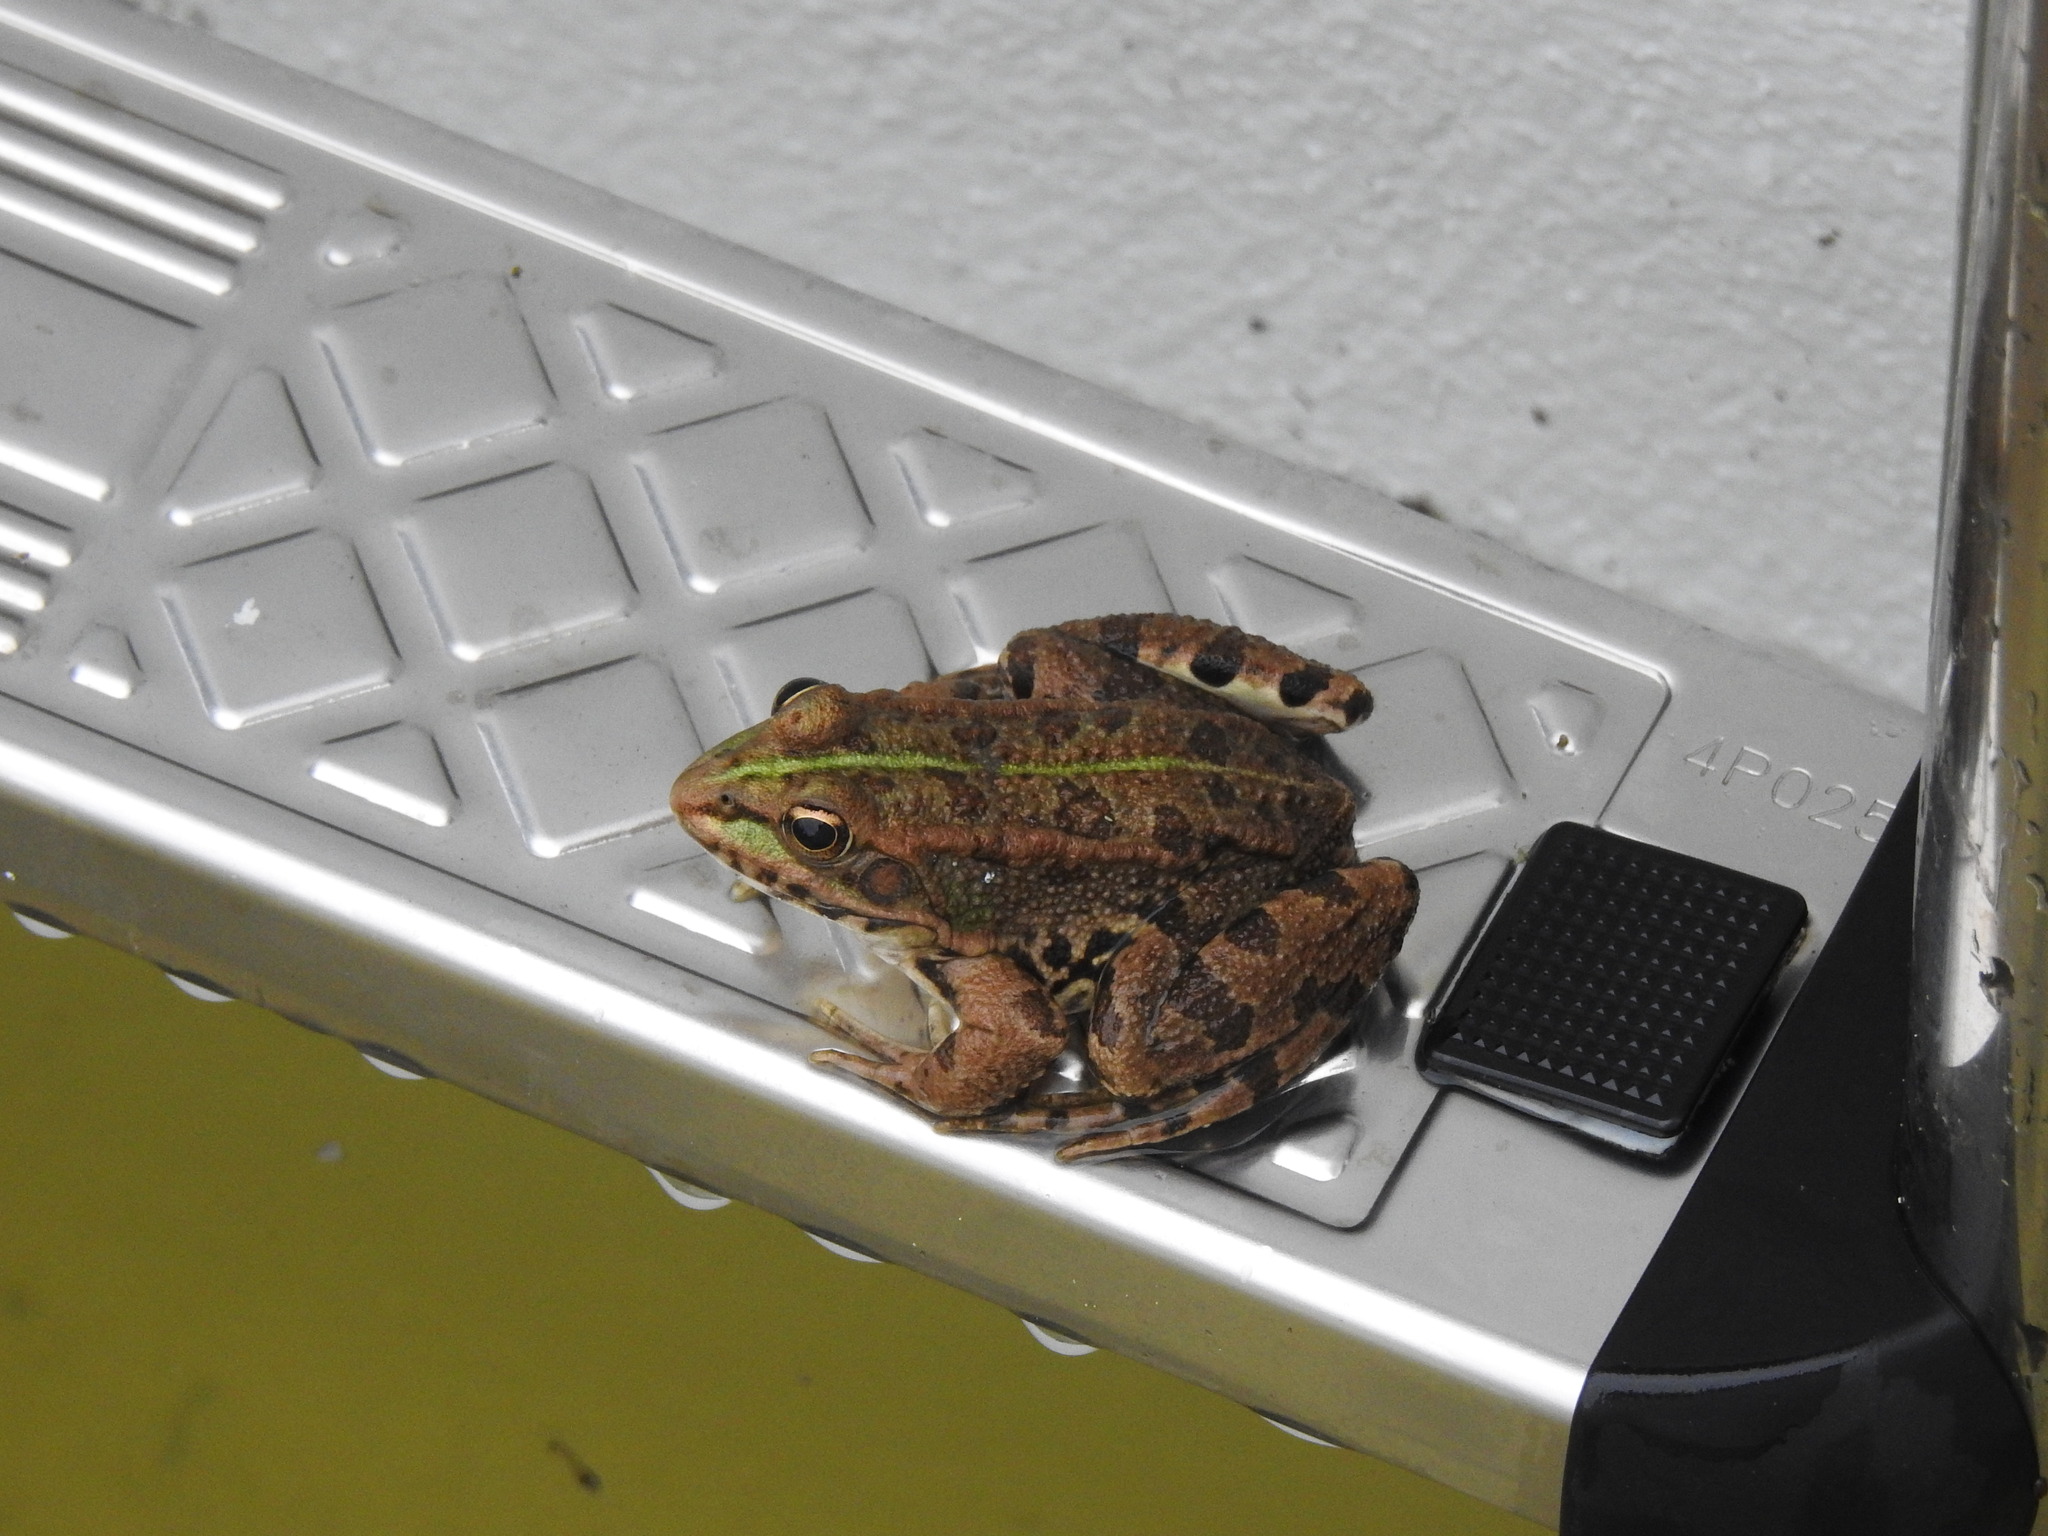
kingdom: Animalia
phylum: Chordata
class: Amphibia
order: Anura
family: Ranidae
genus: Pelophylax
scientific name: Pelophylax perezi
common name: Perez's frog
